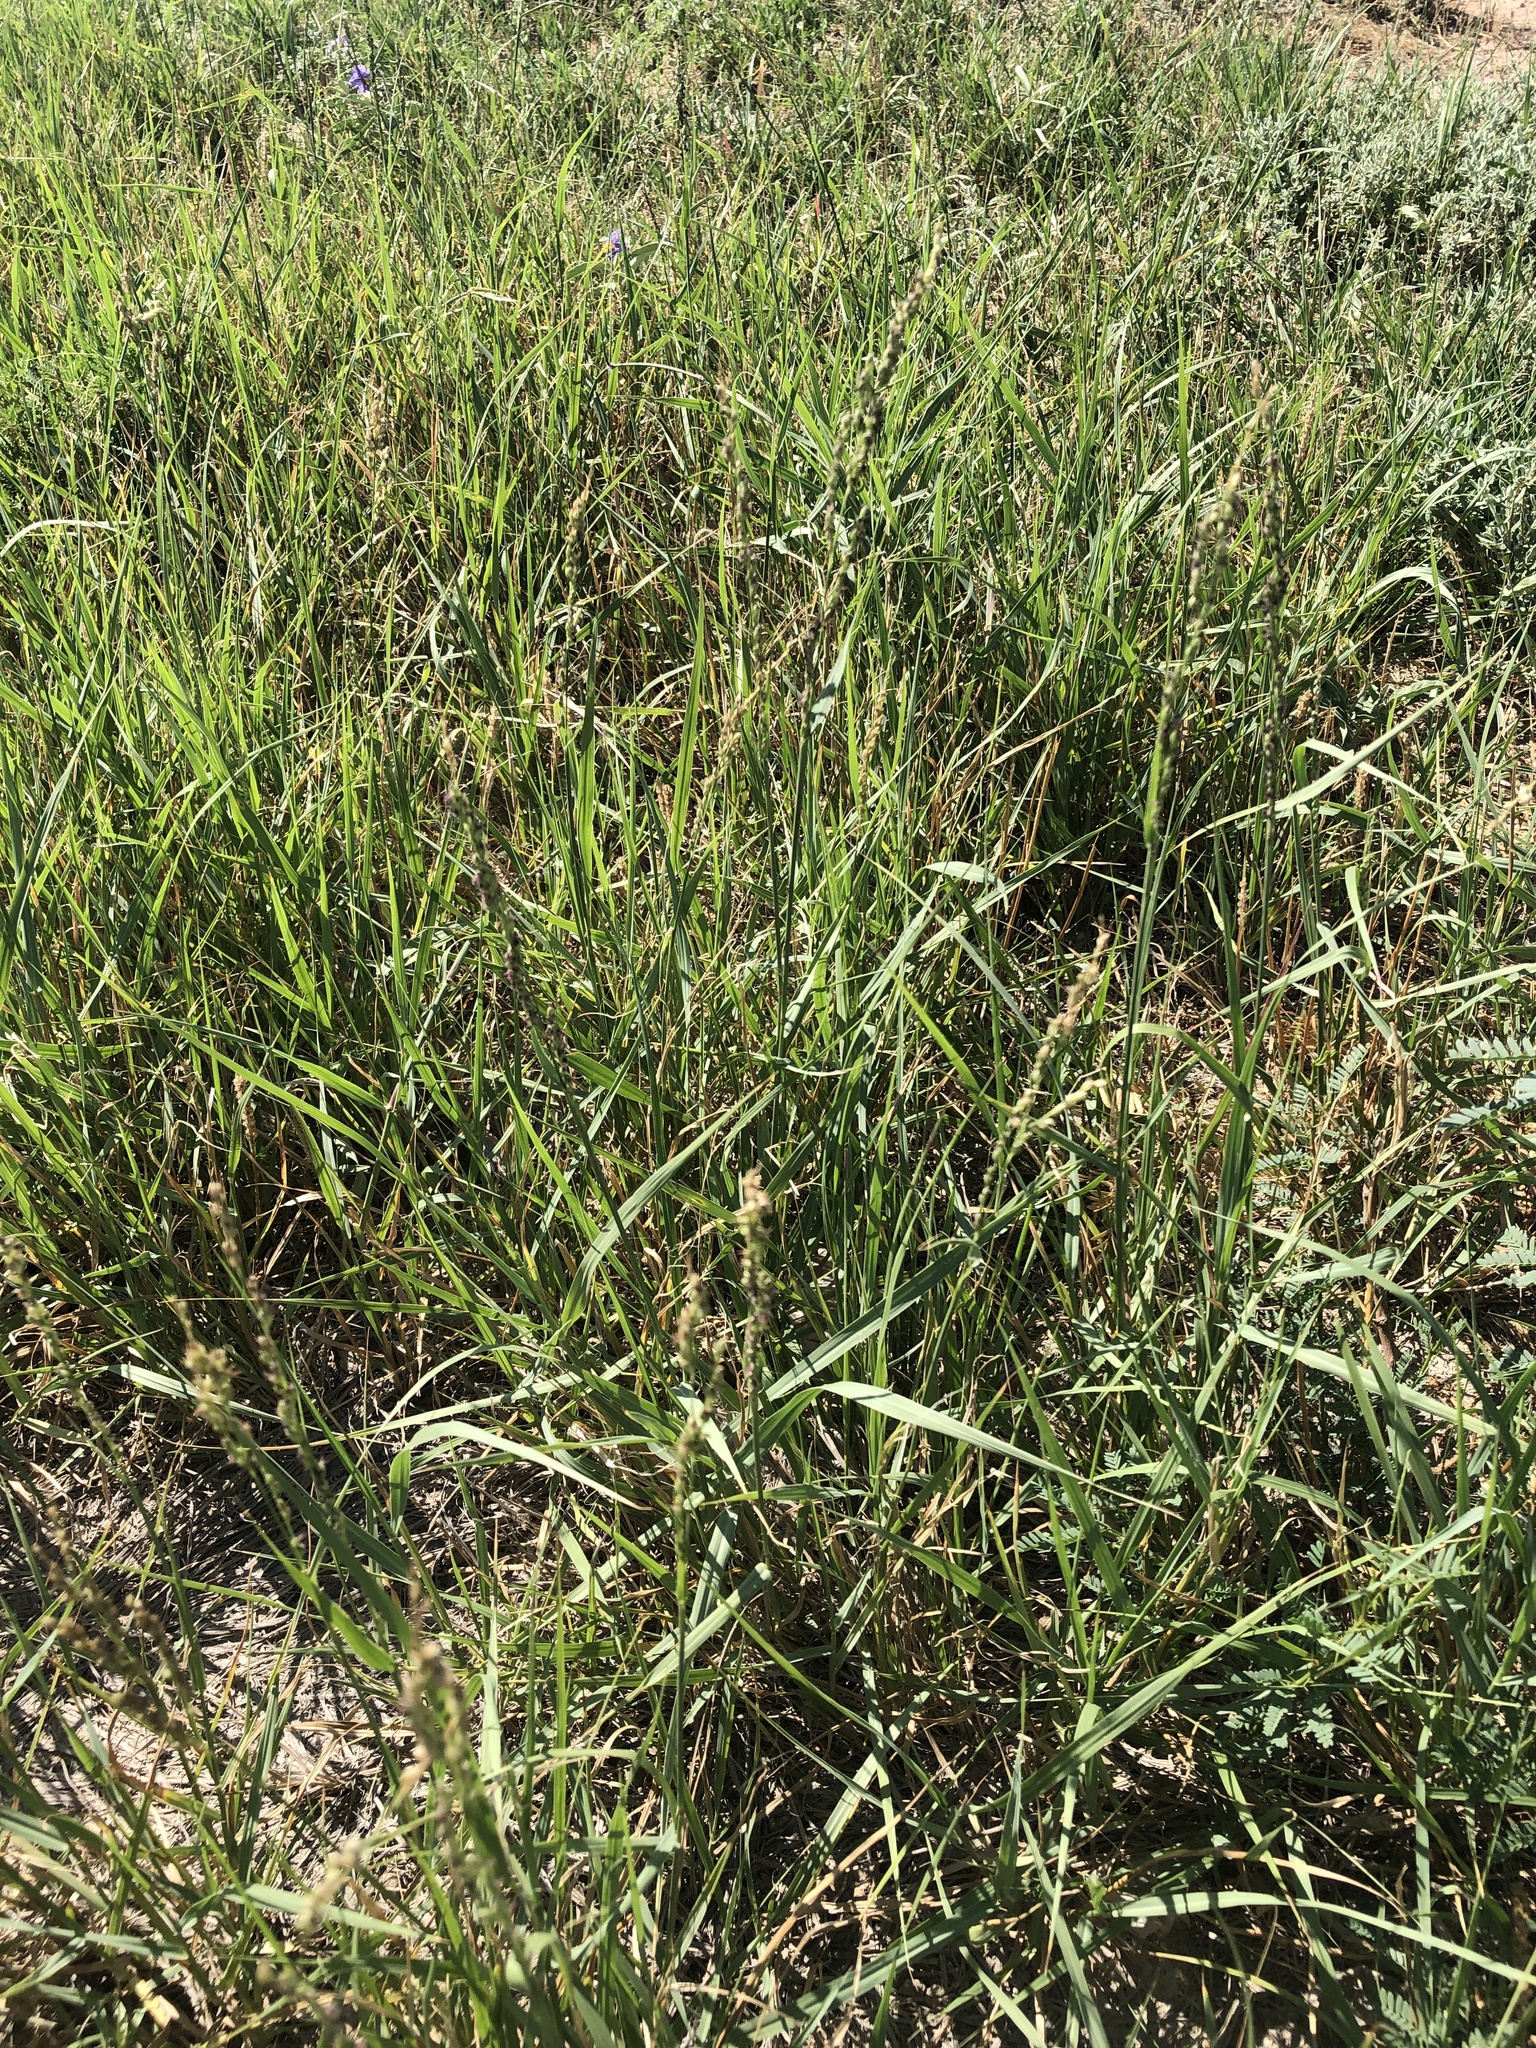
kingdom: Plantae
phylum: Tracheophyta
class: Liliopsida
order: Poales
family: Poaceae
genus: Hopia
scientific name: Hopia obtusa
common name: Vine-mesquite
